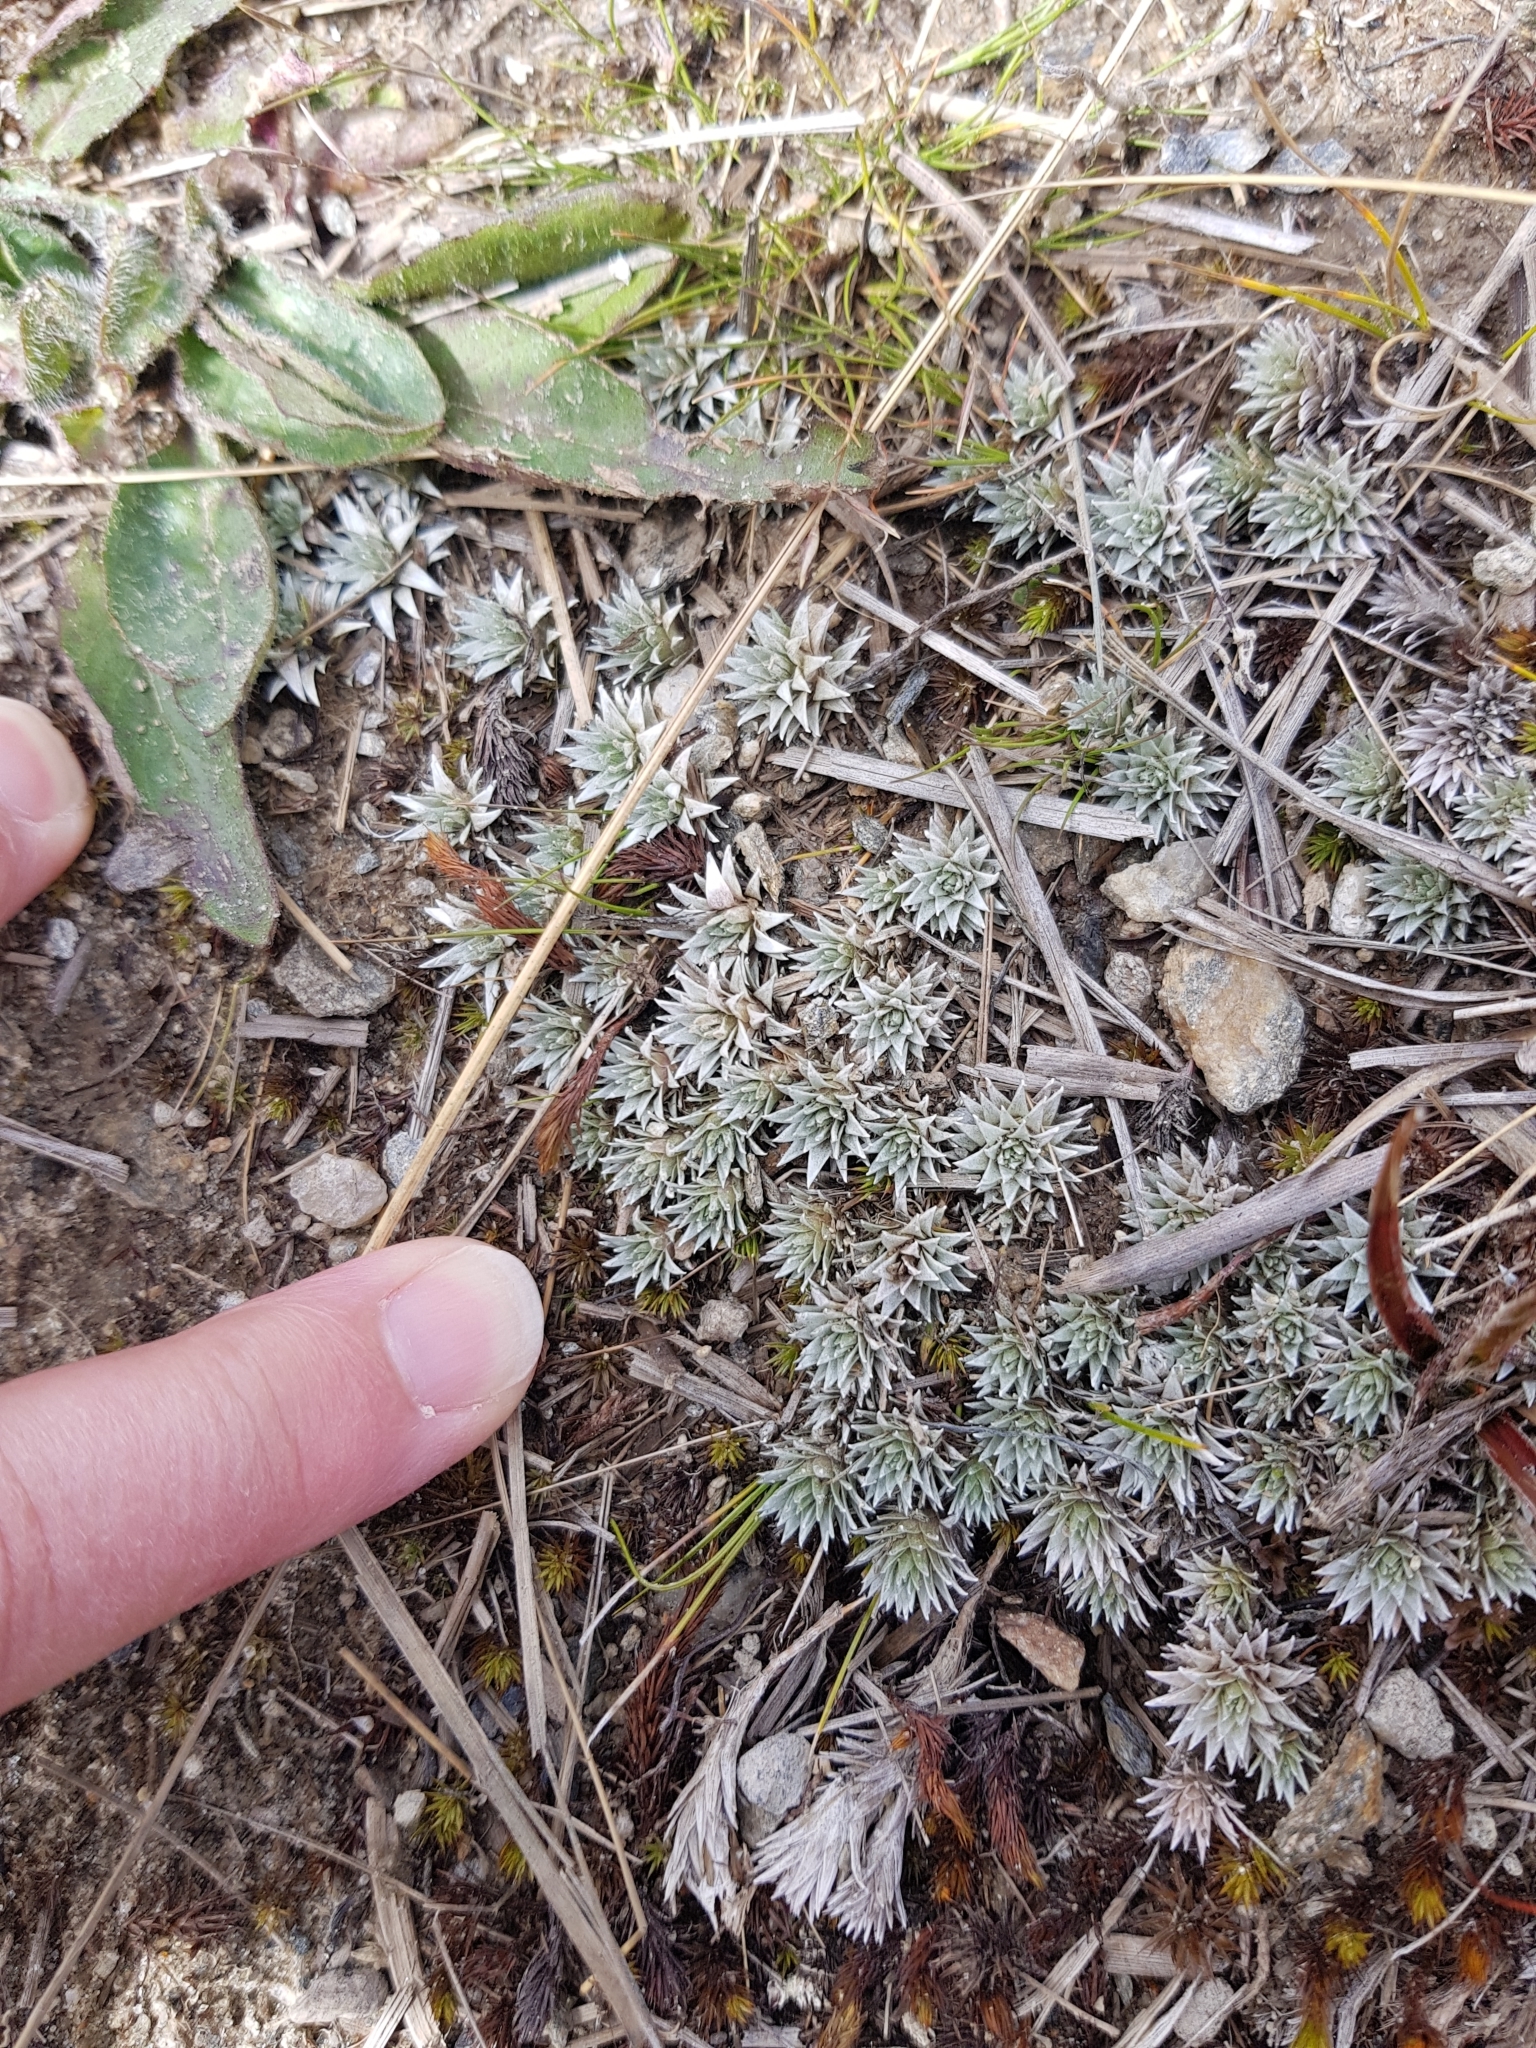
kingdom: Plantae
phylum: Tracheophyta
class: Magnoliopsida
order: Asterales
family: Asteraceae
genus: Raoulia
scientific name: Raoulia grandiflora
